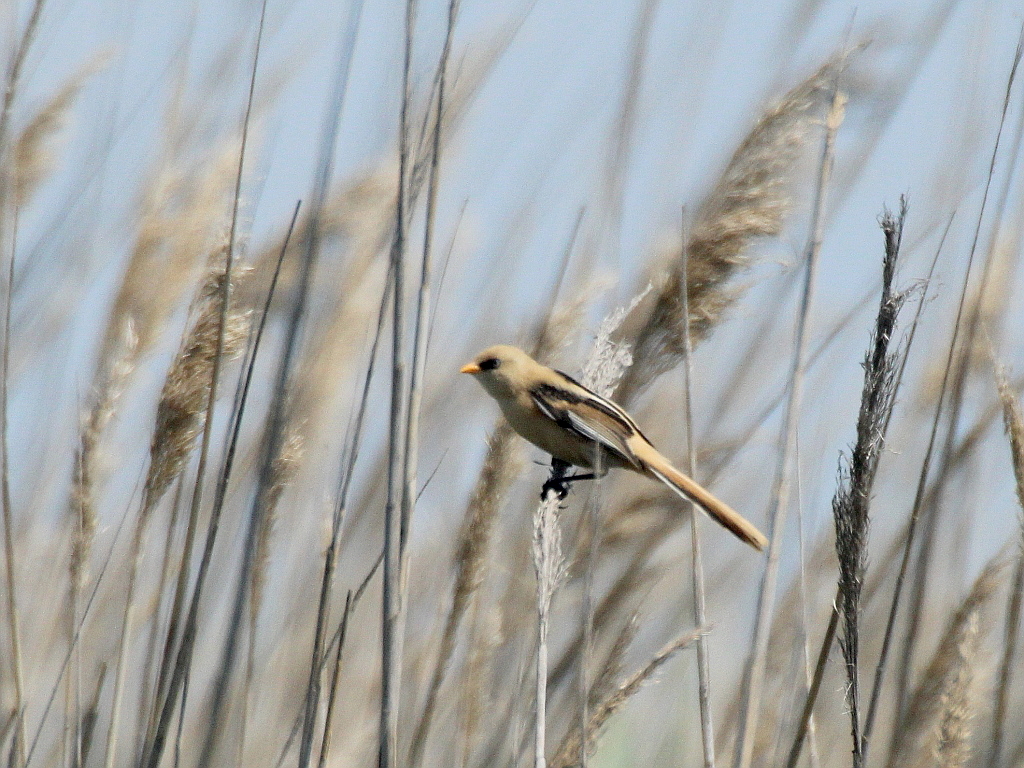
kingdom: Animalia
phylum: Chordata
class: Aves
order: Passeriformes
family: Panuridae
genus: Panurus
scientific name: Panurus biarmicus
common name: Bearded reedling
